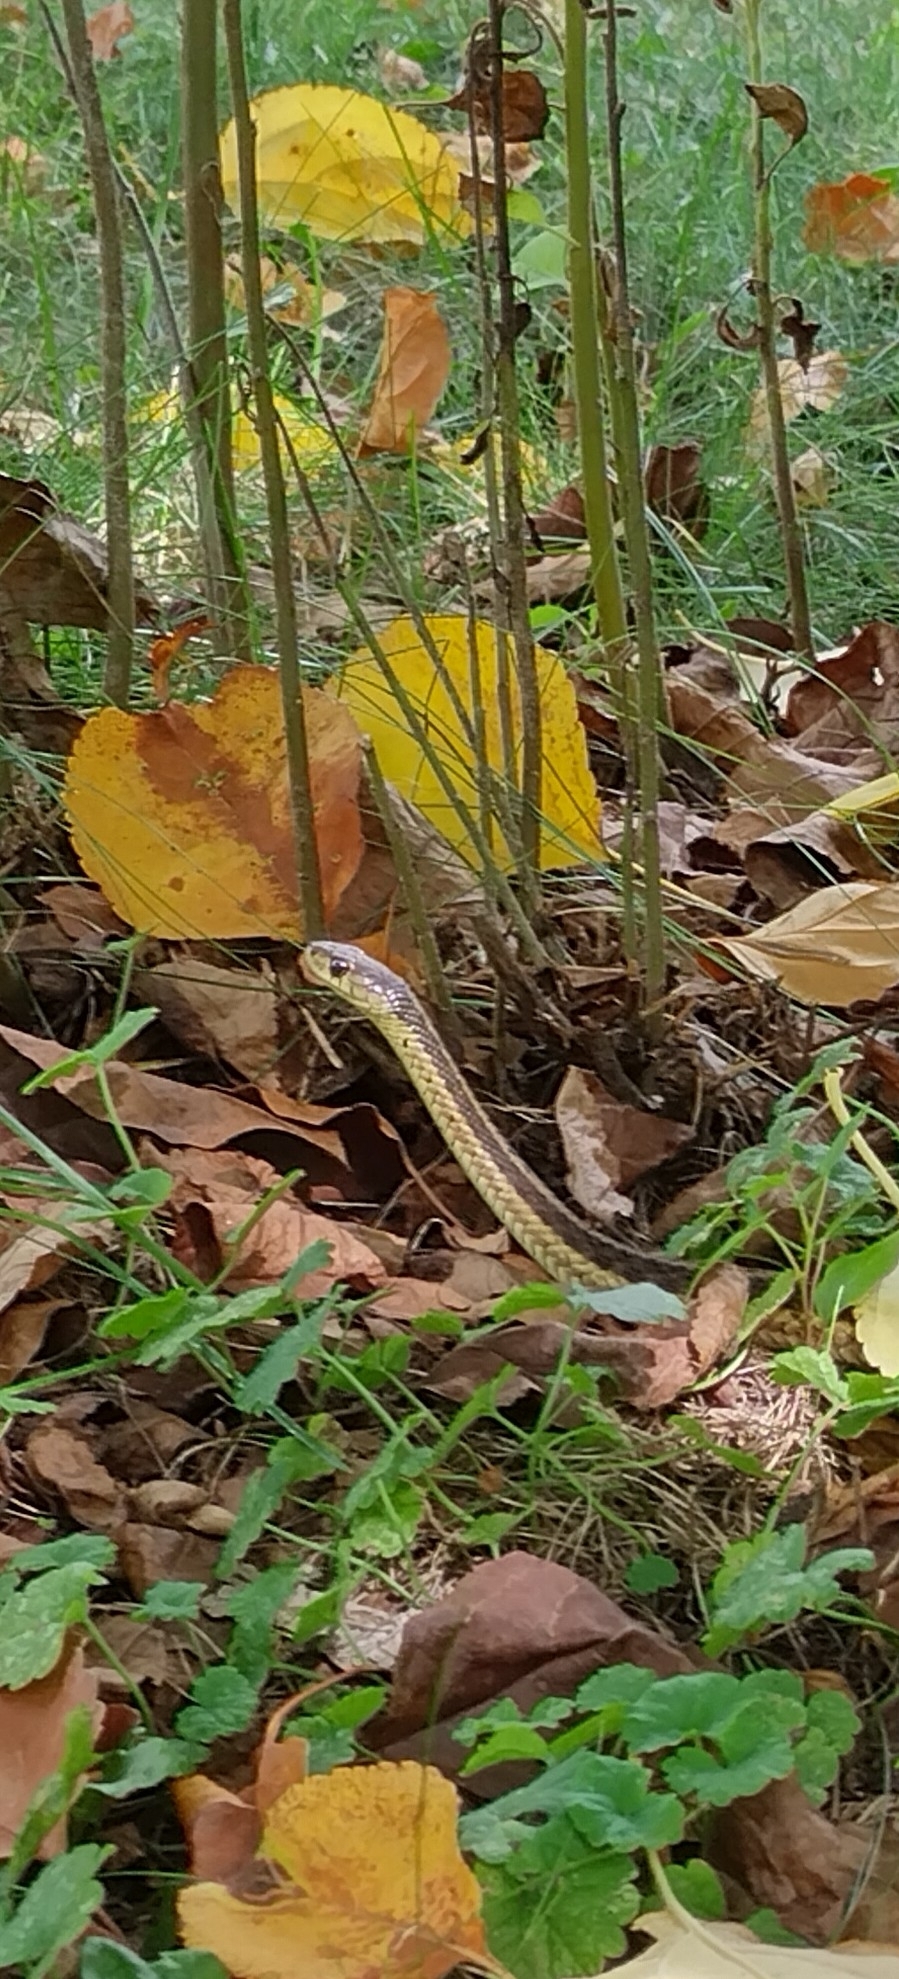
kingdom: Animalia
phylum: Chordata
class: Squamata
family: Colubridae
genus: Thamnophis
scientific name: Thamnophis sirtalis
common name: Common garter snake
